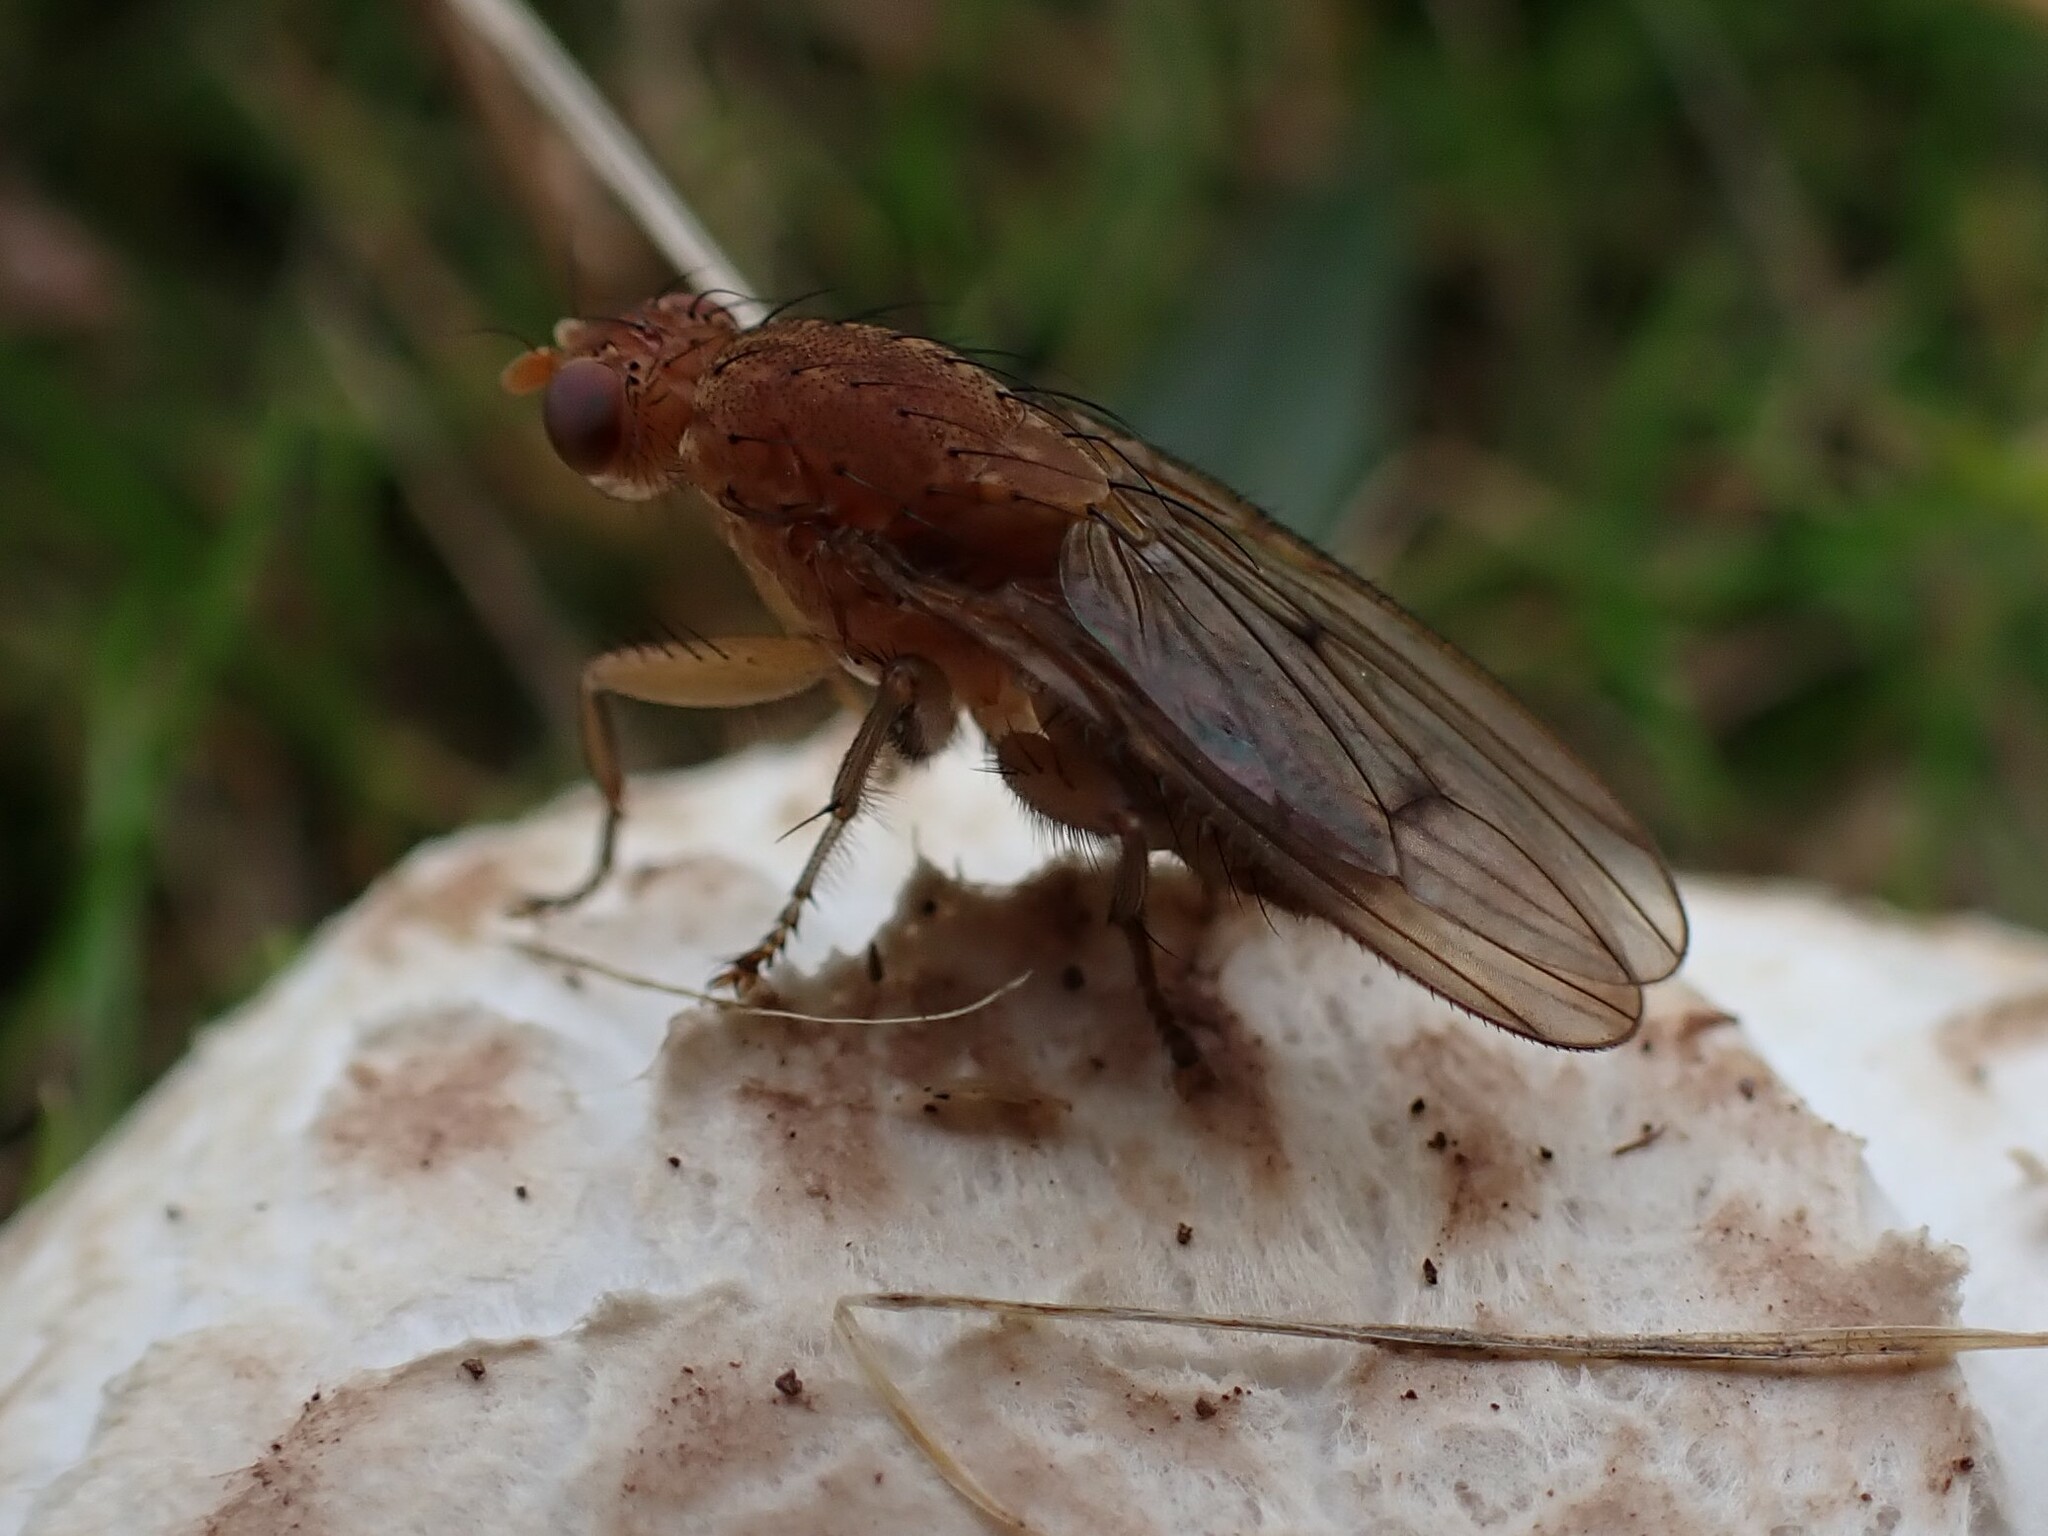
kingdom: Animalia
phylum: Arthropoda
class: Insecta
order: Diptera
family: Heleomyzidae
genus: Suillia
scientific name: Suillia notata
